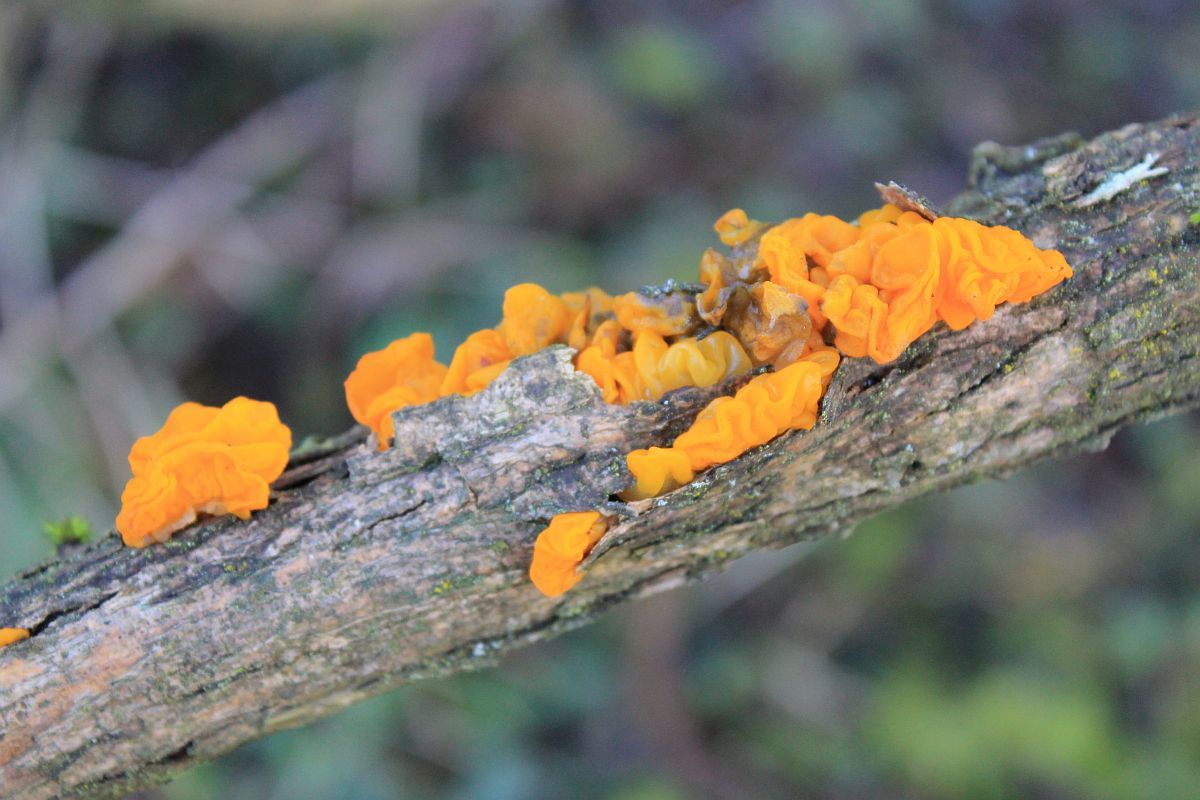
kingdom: Fungi
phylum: Basidiomycota
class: Tremellomycetes
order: Tremellales
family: Tremellaceae
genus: Tremella
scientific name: Tremella mesenterica
